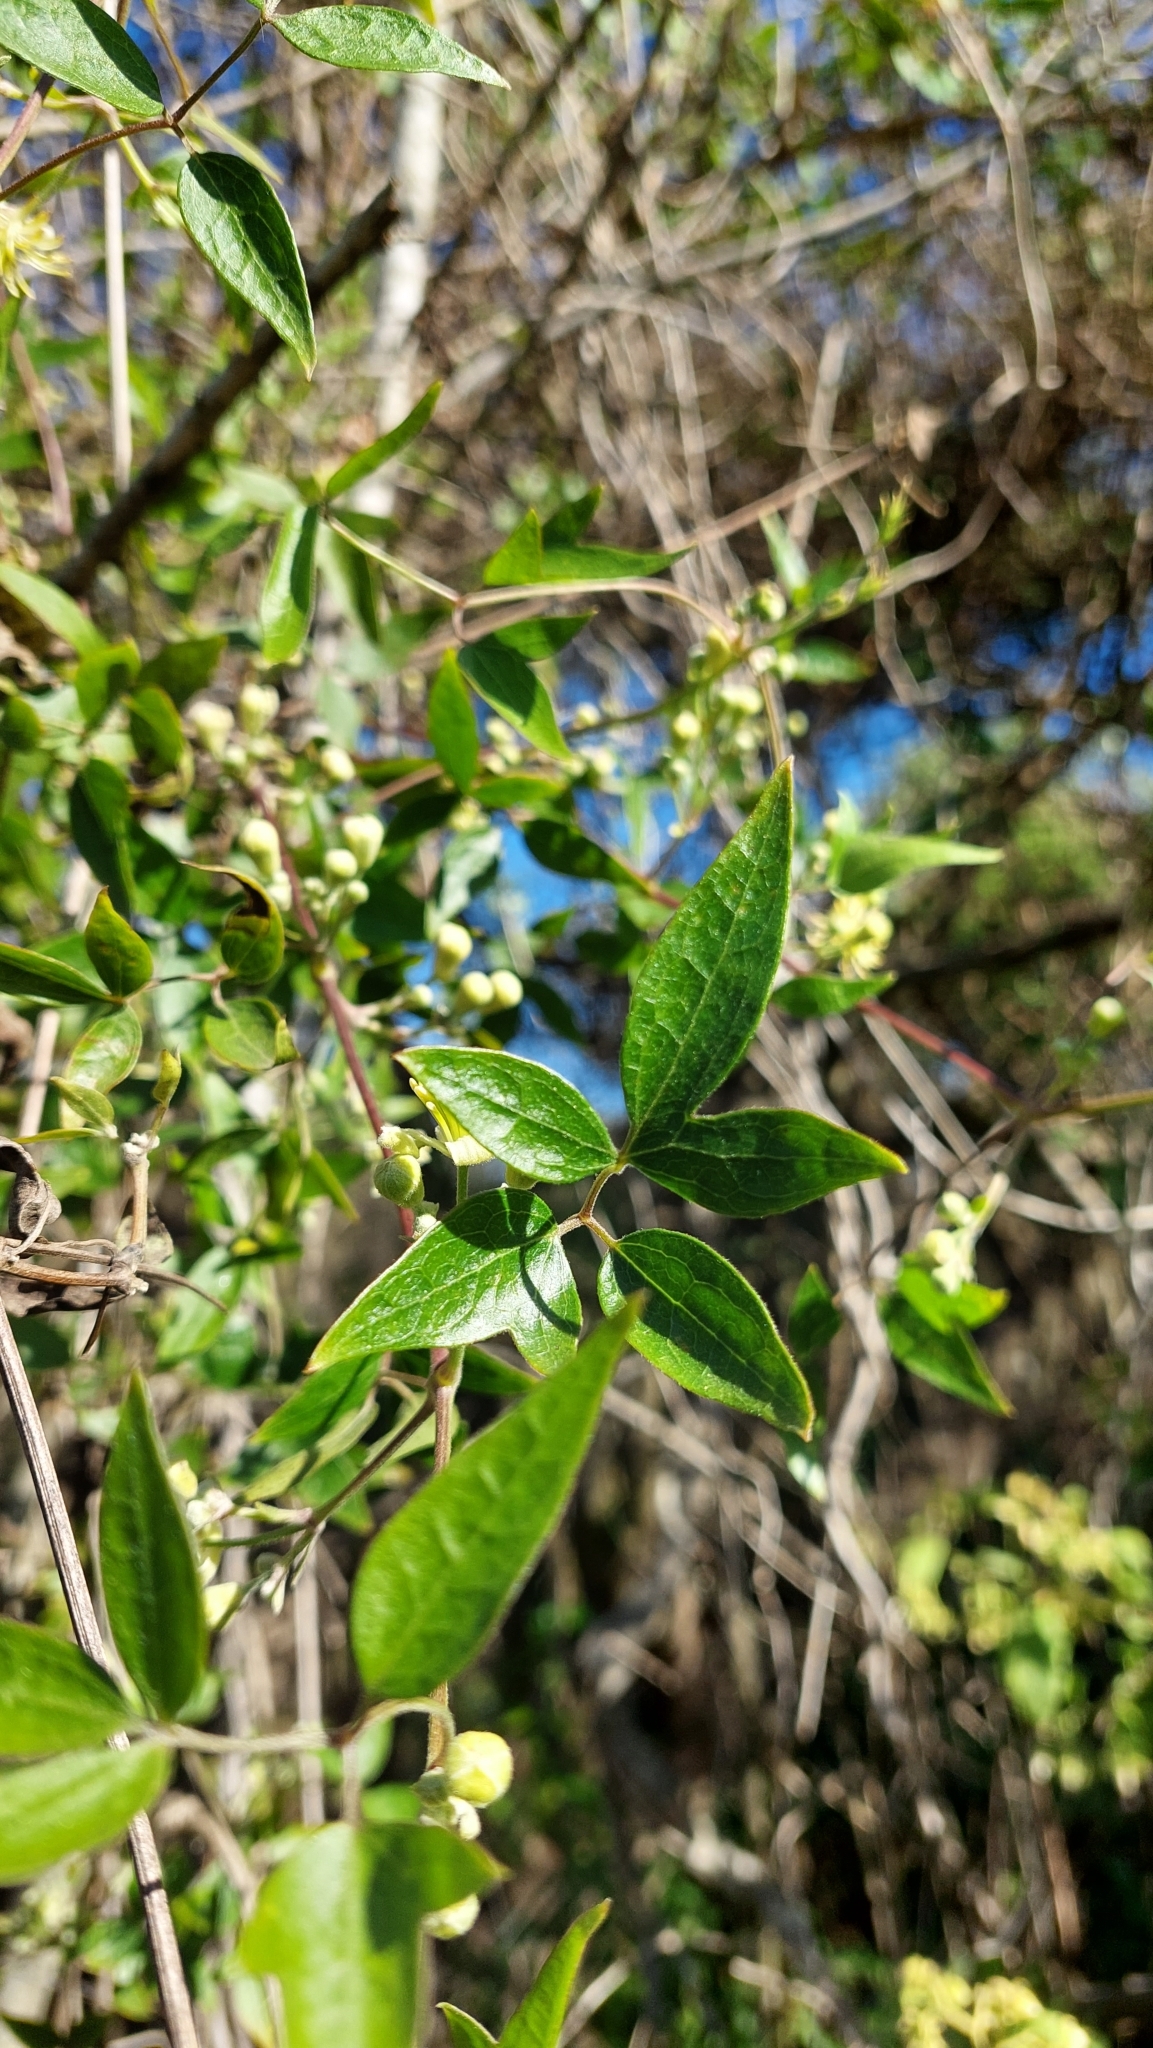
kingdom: Plantae
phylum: Tracheophyta
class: Magnoliopsida
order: Ranunculales
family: Ranunculaceae
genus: Clematis
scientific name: Clematis montevidensis
